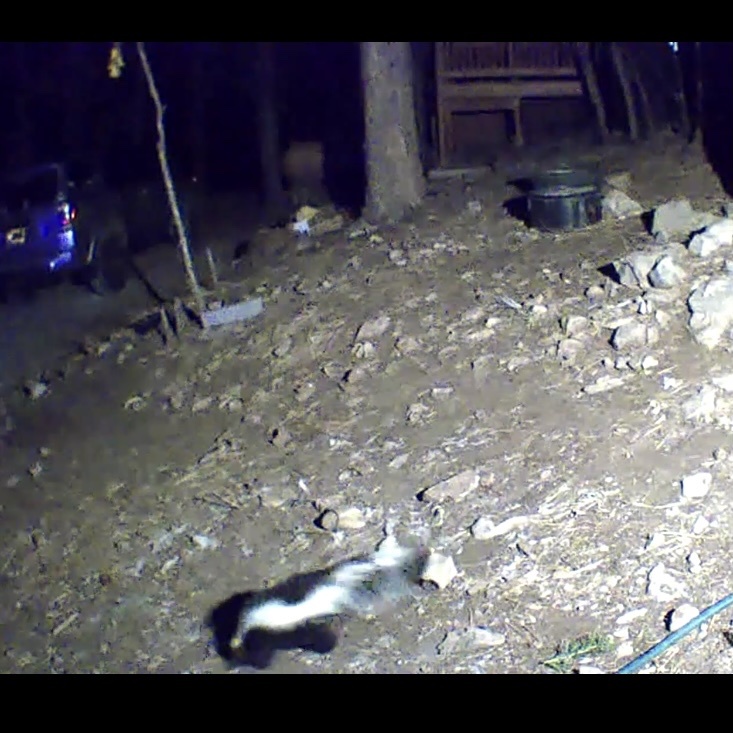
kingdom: Animalia
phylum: Chordata
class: Mammalia
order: Carnivora
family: Mephitidae
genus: Mephitis
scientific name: Mephitis mephitis
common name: Striped skunk
